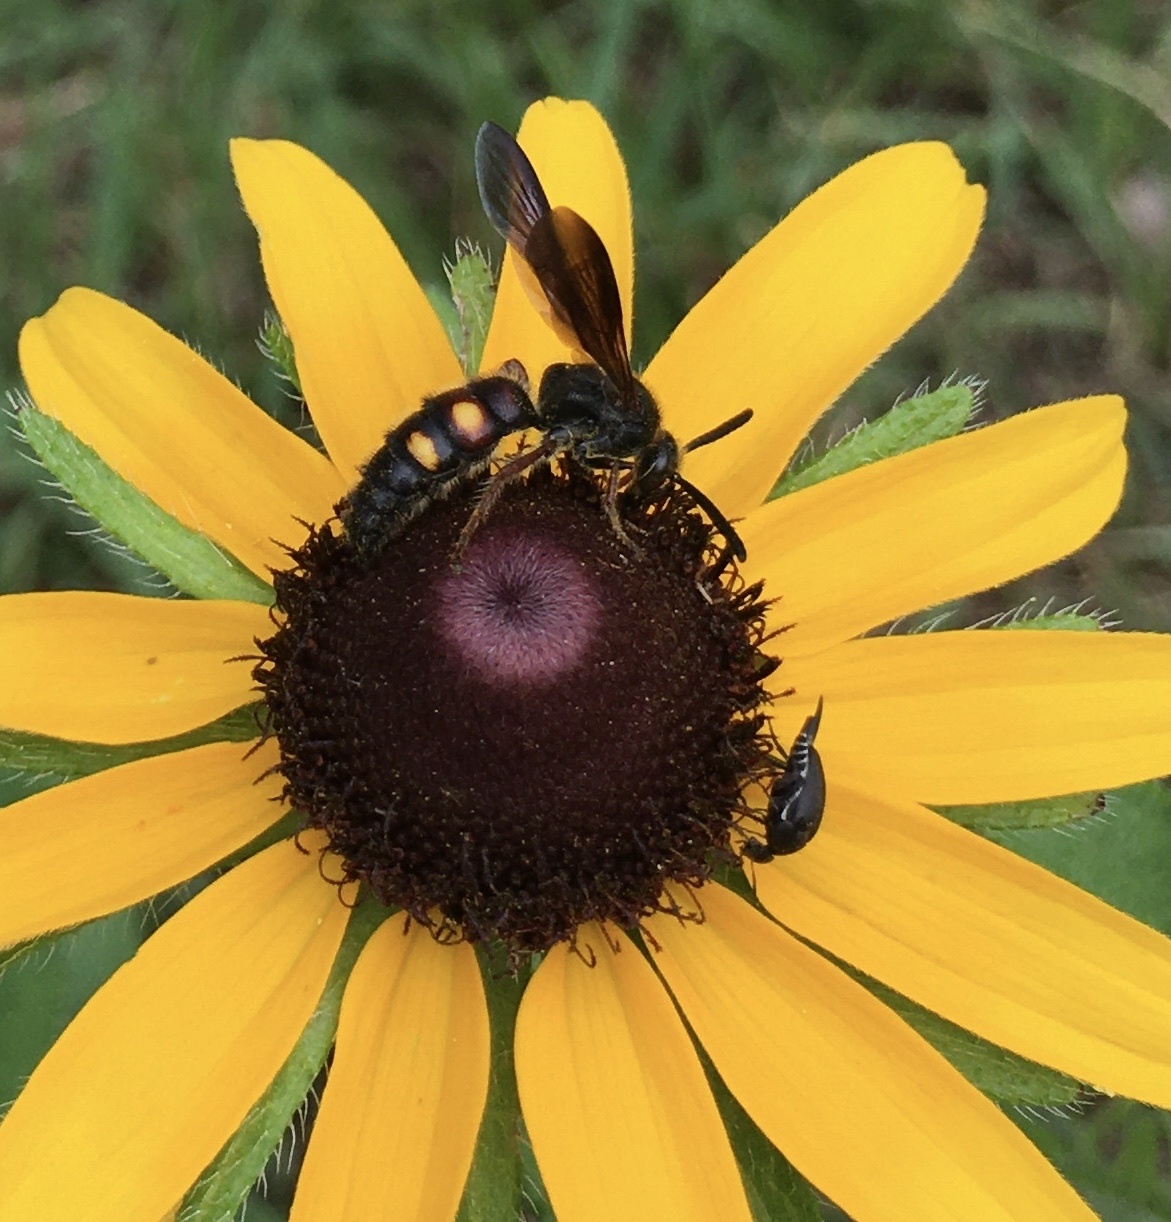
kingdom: Animalia
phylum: Arthropoda
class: Insecta
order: Hymenoptera
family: Scoliidae
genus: Scolia
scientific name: Scolia nobilitata
